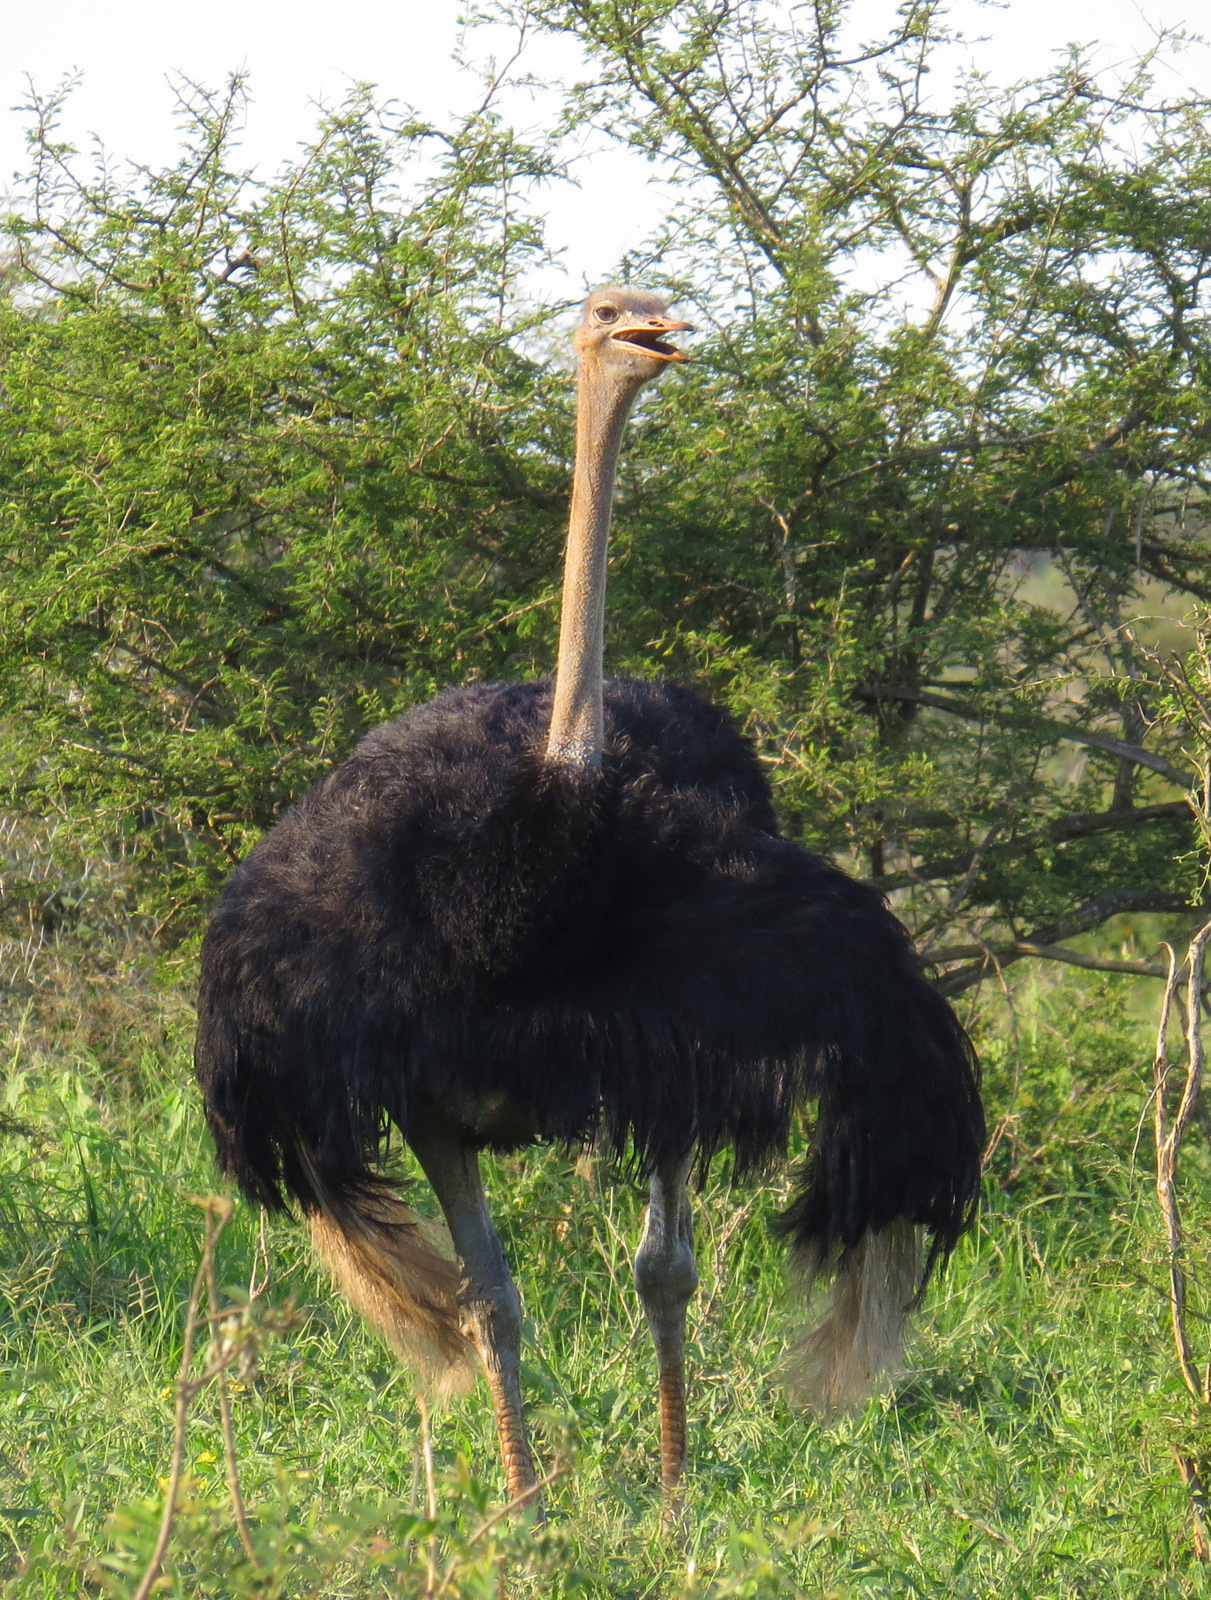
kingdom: Animalia
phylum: Chordata
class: Aves
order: Struthioniformes
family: Struthionidae
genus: Struthio
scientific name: Struthio camelus
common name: Common ostrich
